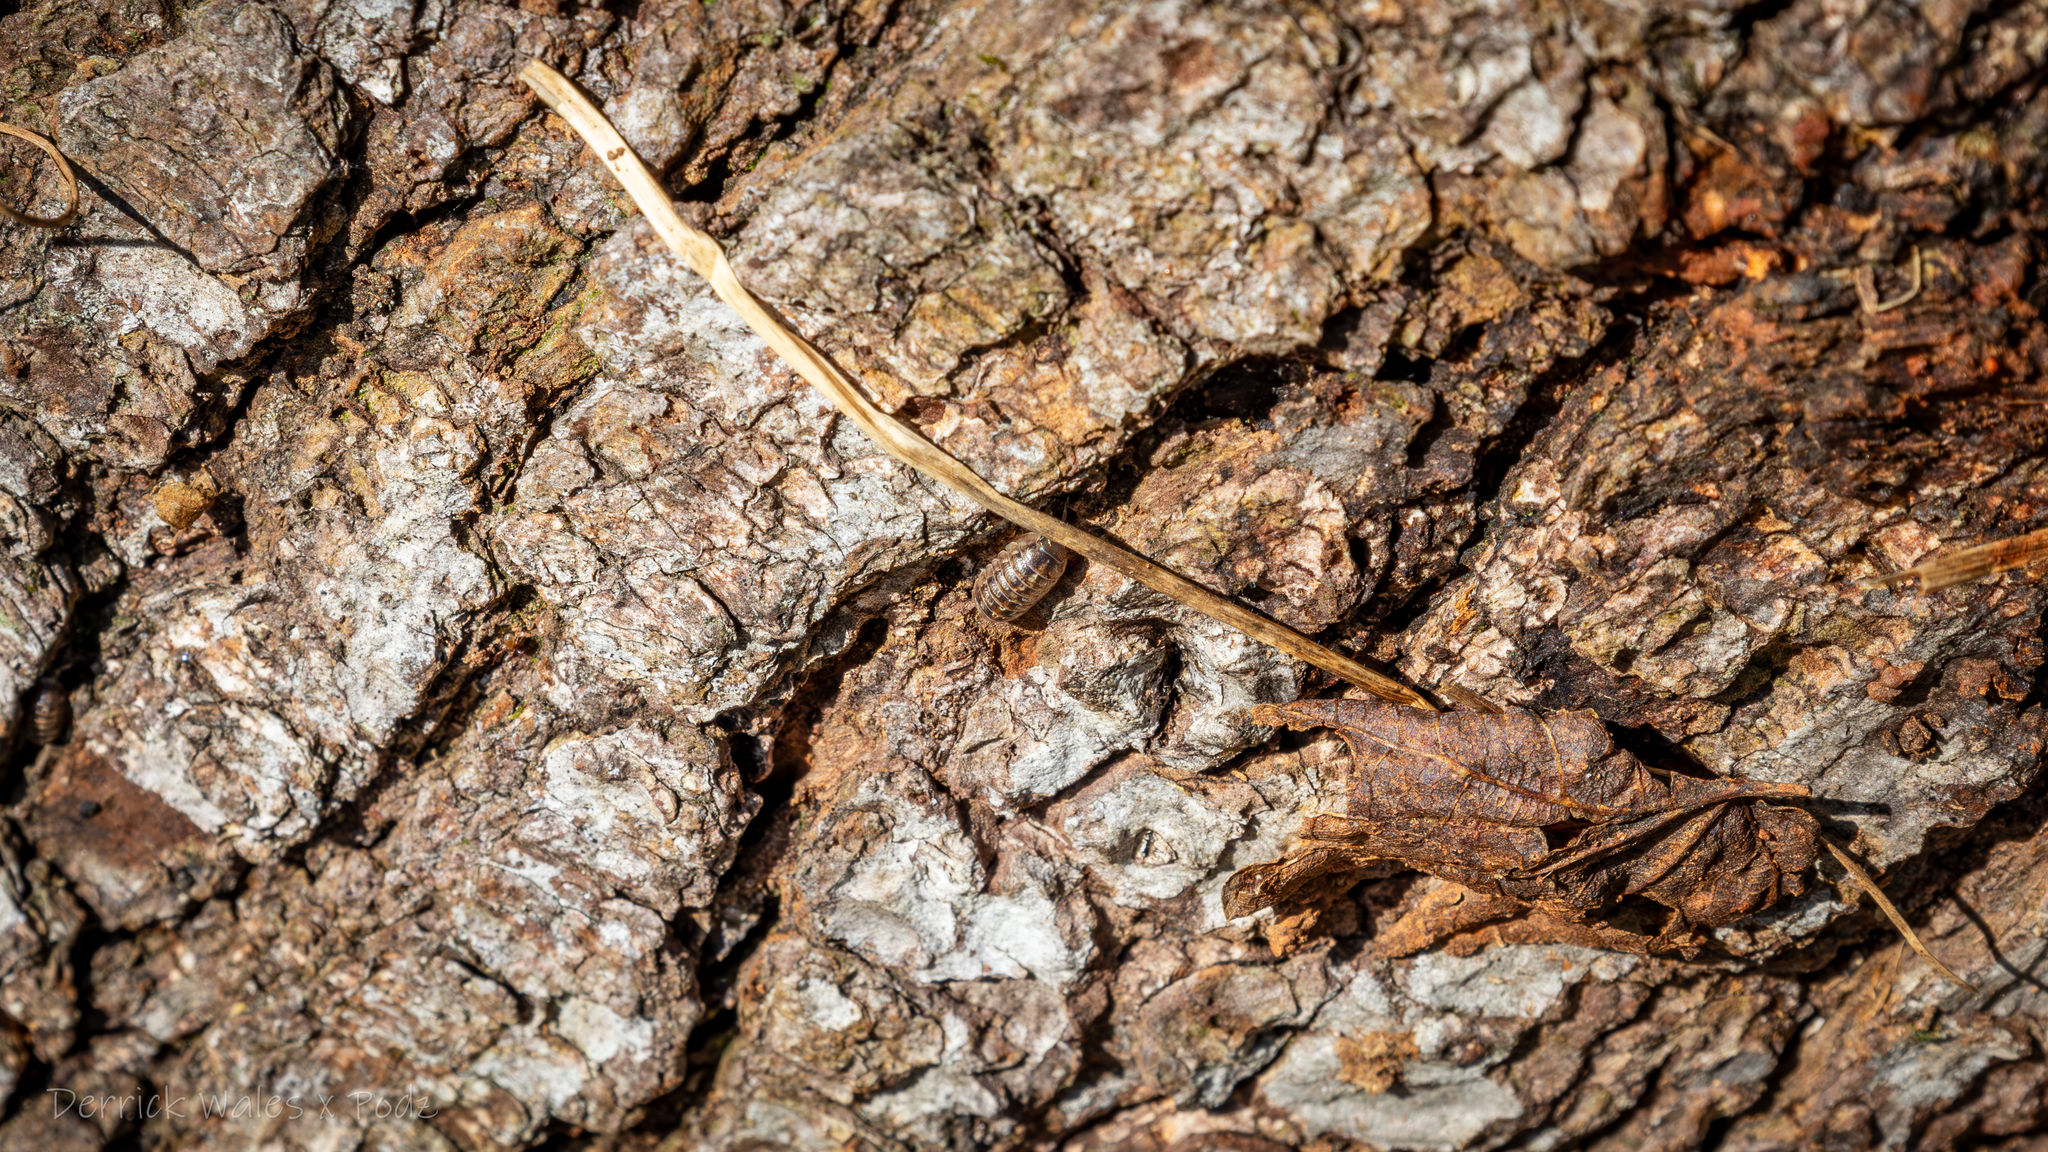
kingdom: Animalia
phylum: Arthropoda
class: Malacostraca
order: Isopoda
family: Armadillidiidae
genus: Armadillidium
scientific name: Armadillidium vulgare
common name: Common pill woodlouse
